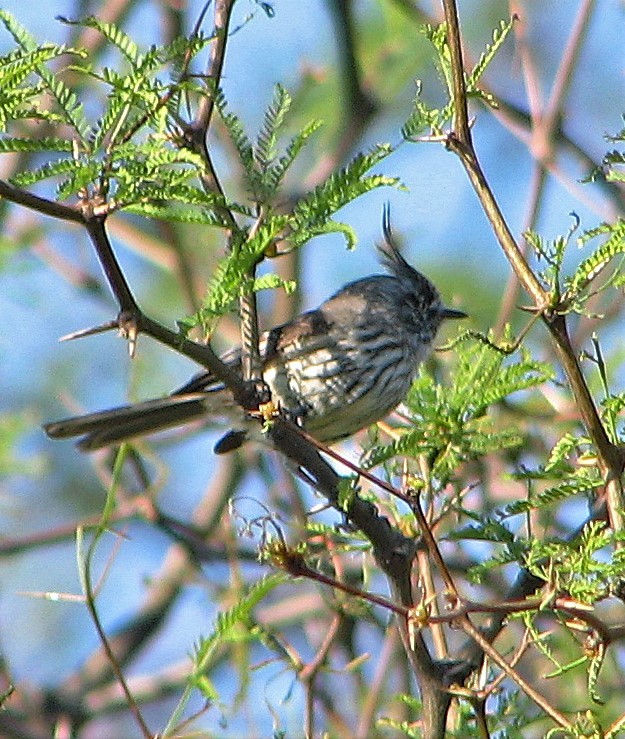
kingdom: Animalia
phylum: Chordata
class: Aves
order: Passeriformes
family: Tyrannidae
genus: Anairetes
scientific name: Anairetes parulus
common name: Tufted tit-tyrant
